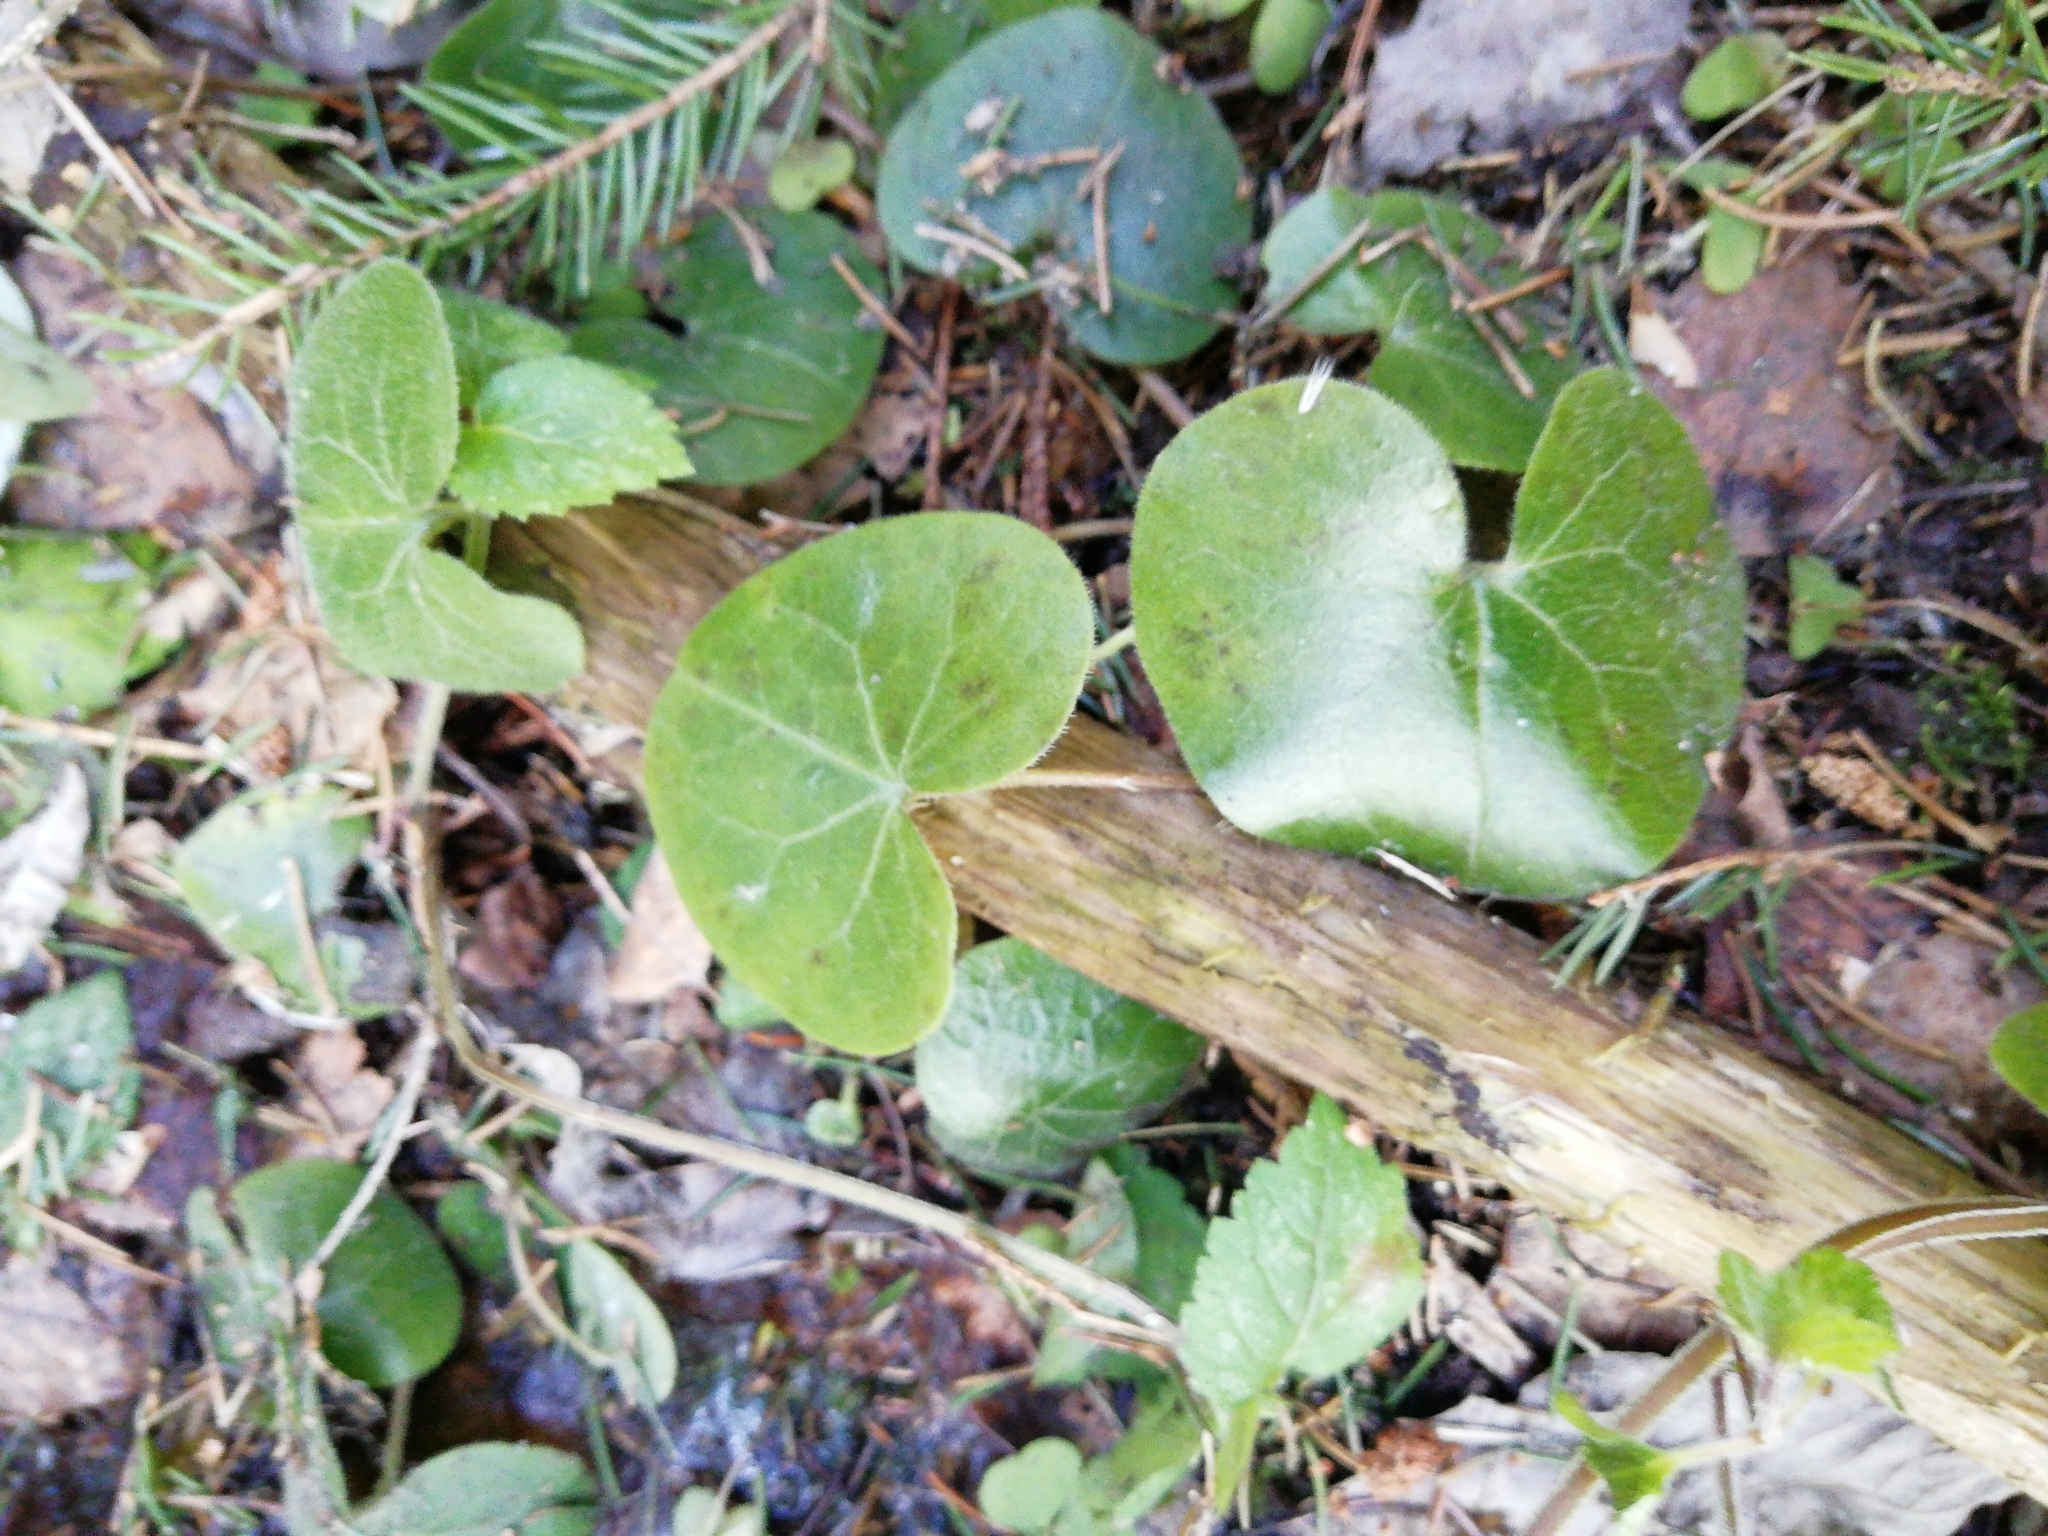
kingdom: Plantae
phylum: Tracheophyta
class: Magnoliopsida
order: Piperales
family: Aristolochiaceae
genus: Asarum
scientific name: Asarum europaeum
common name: Asarabacca
